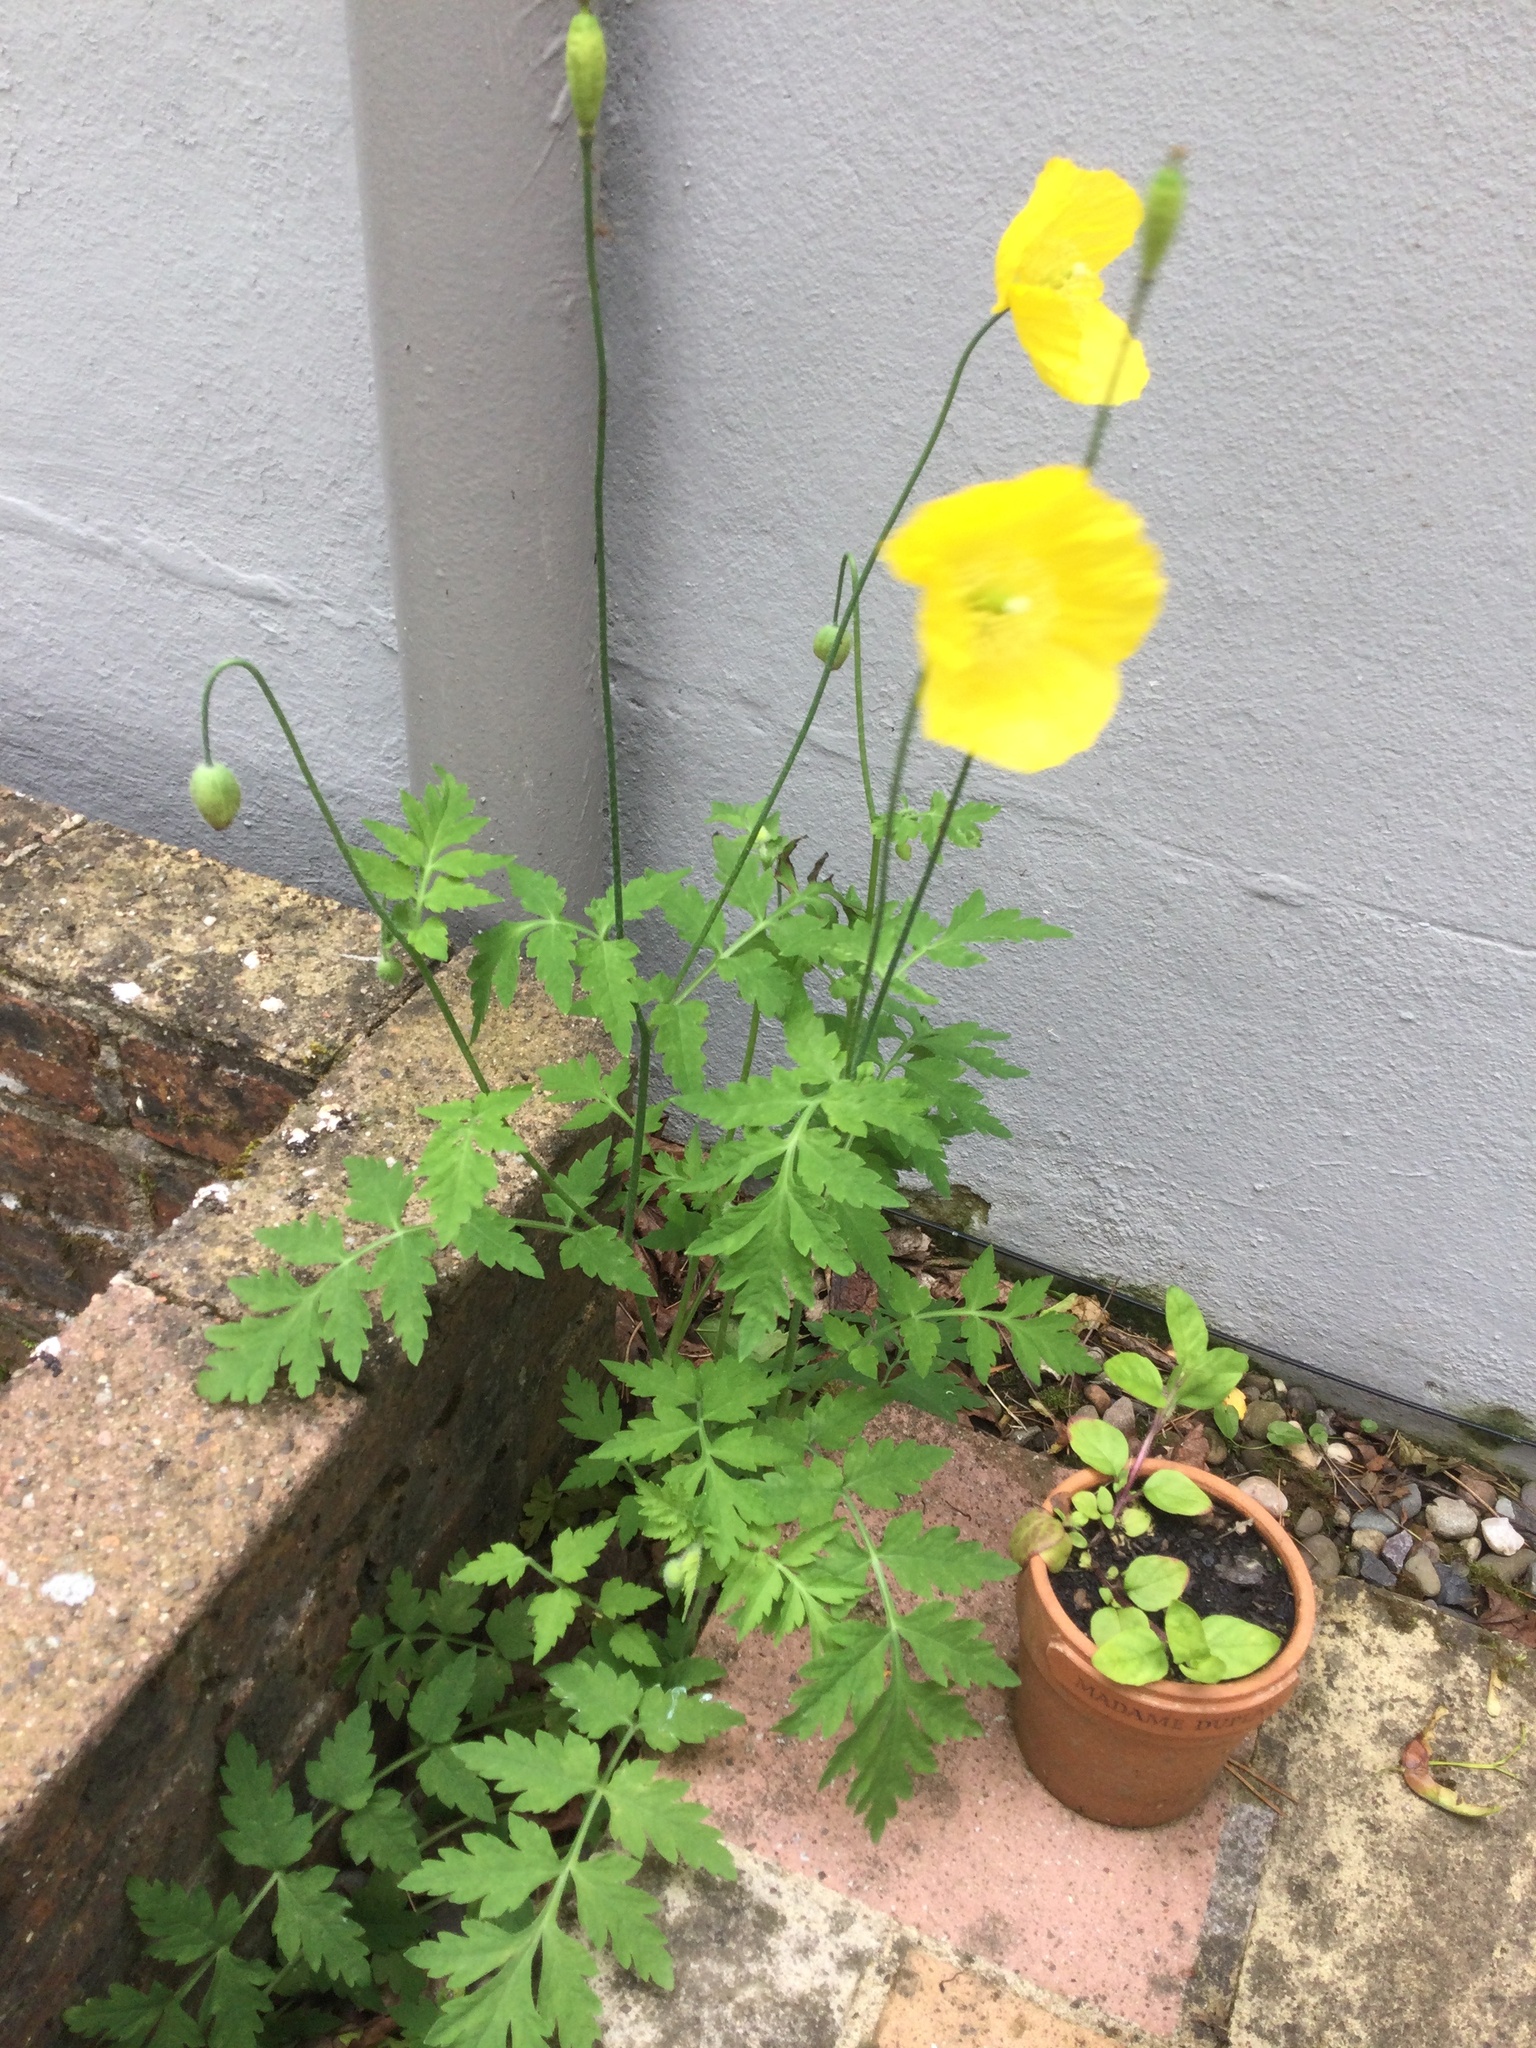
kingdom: Plantae
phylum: Tracheophyta
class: Magnoliopsida
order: Ranunculales
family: Papaveraceae
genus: Papaver
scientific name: Papaver cambricum
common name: Poppy
